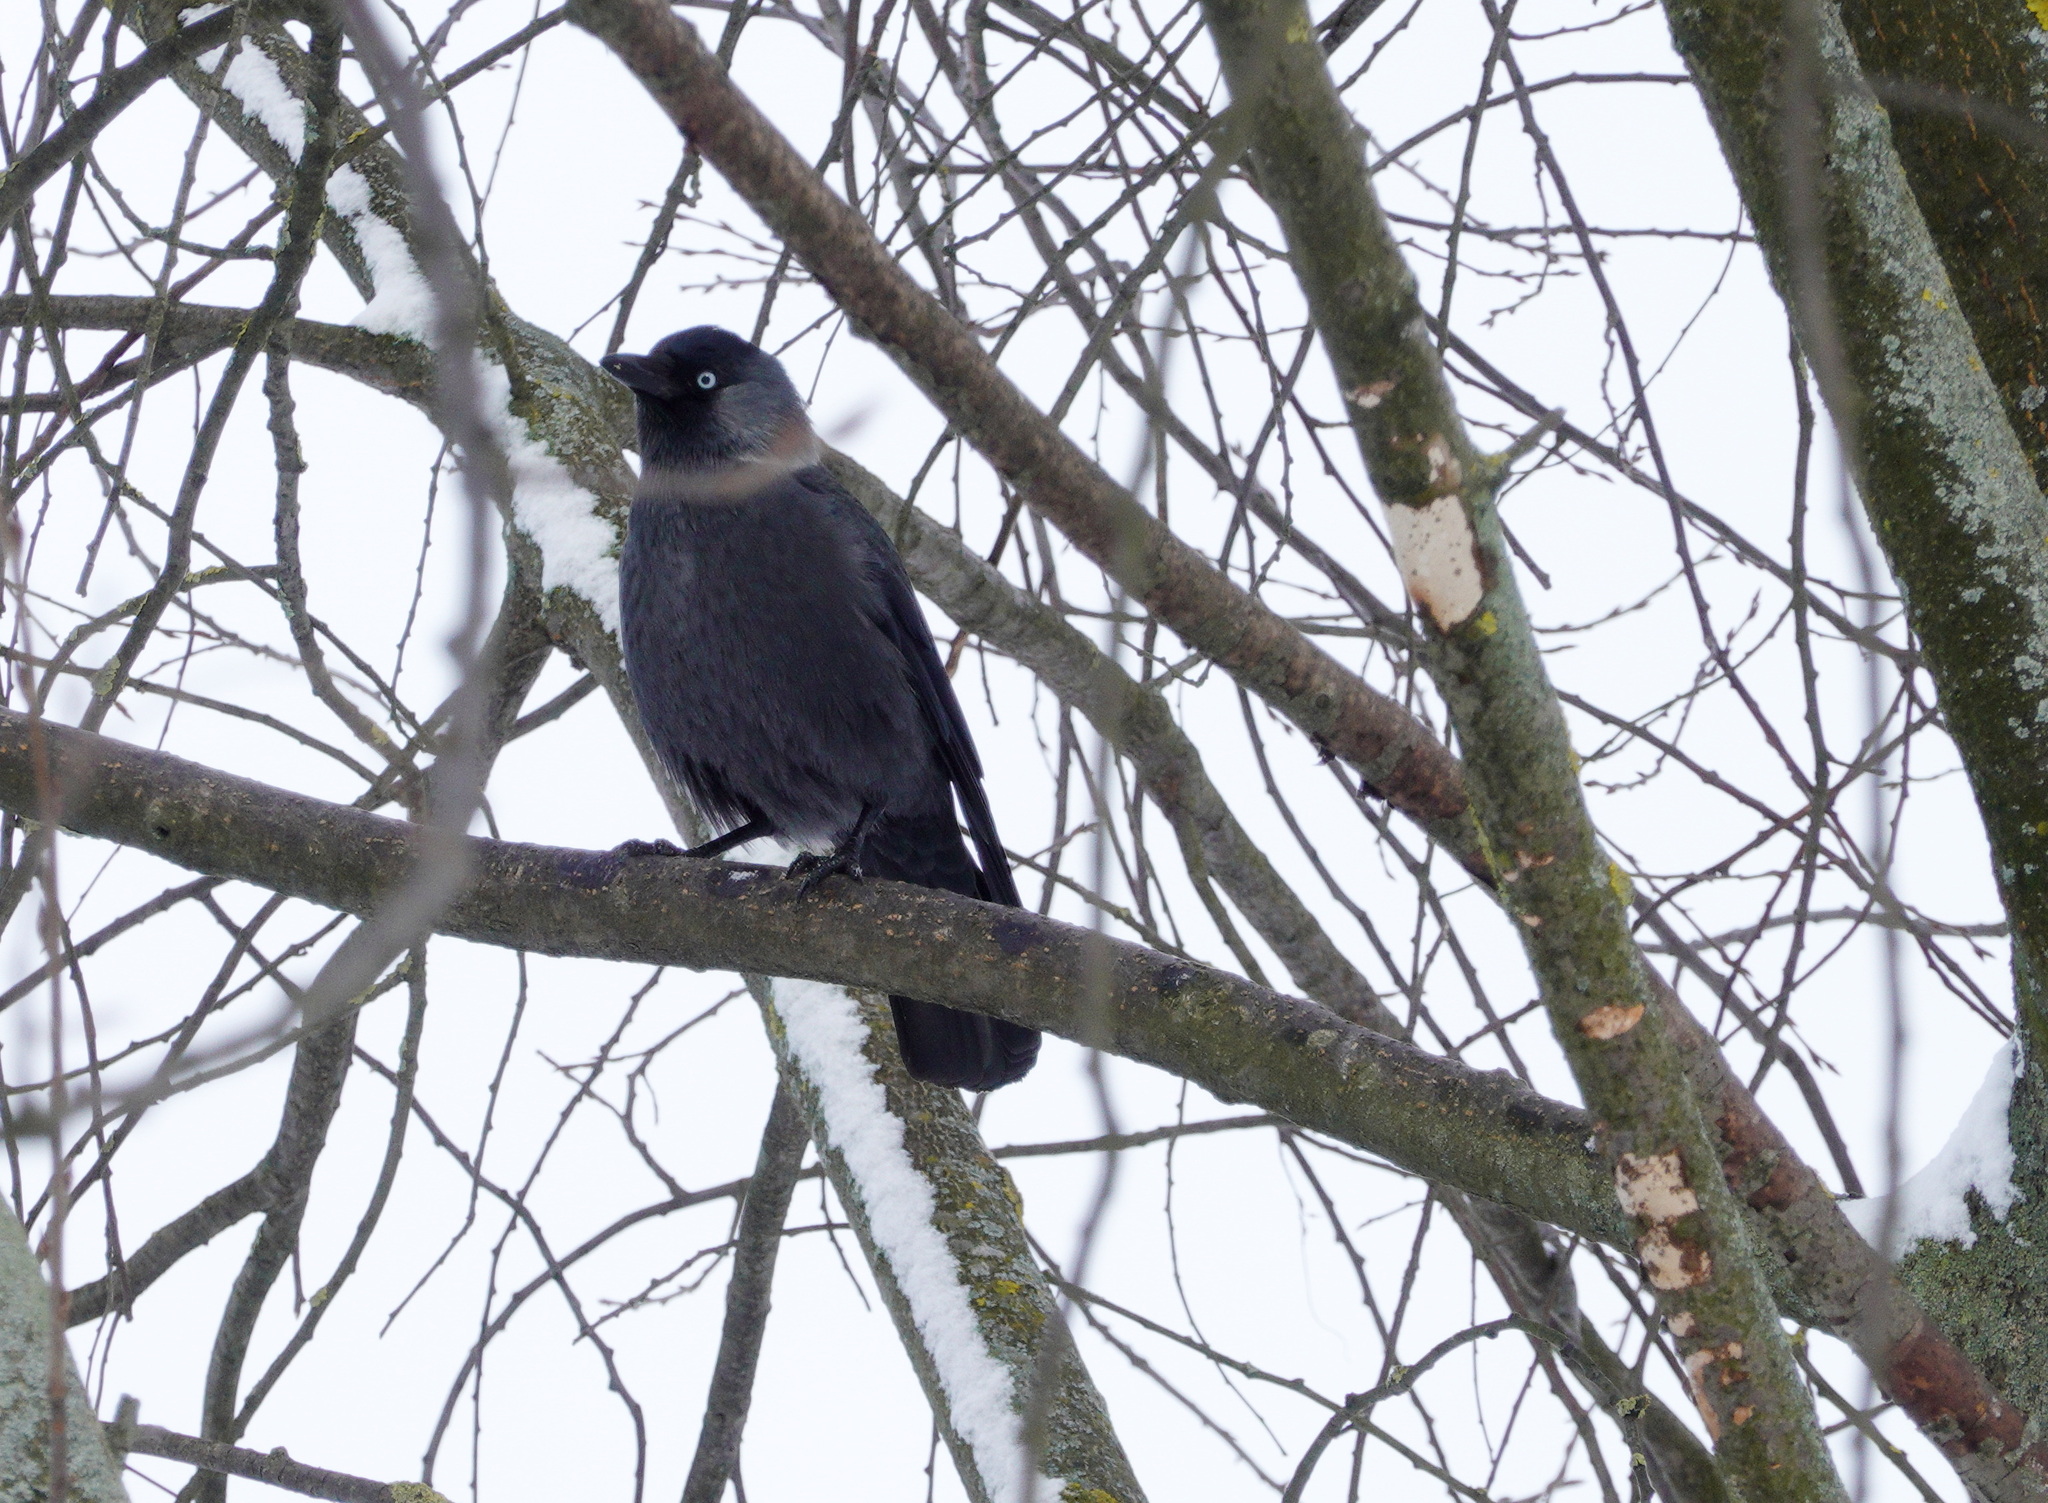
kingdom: Animalia
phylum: Chordata
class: Aves
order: Passeriformes
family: Corvidae
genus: Coloeus
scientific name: Coloeus monedula
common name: Western jackdaw
